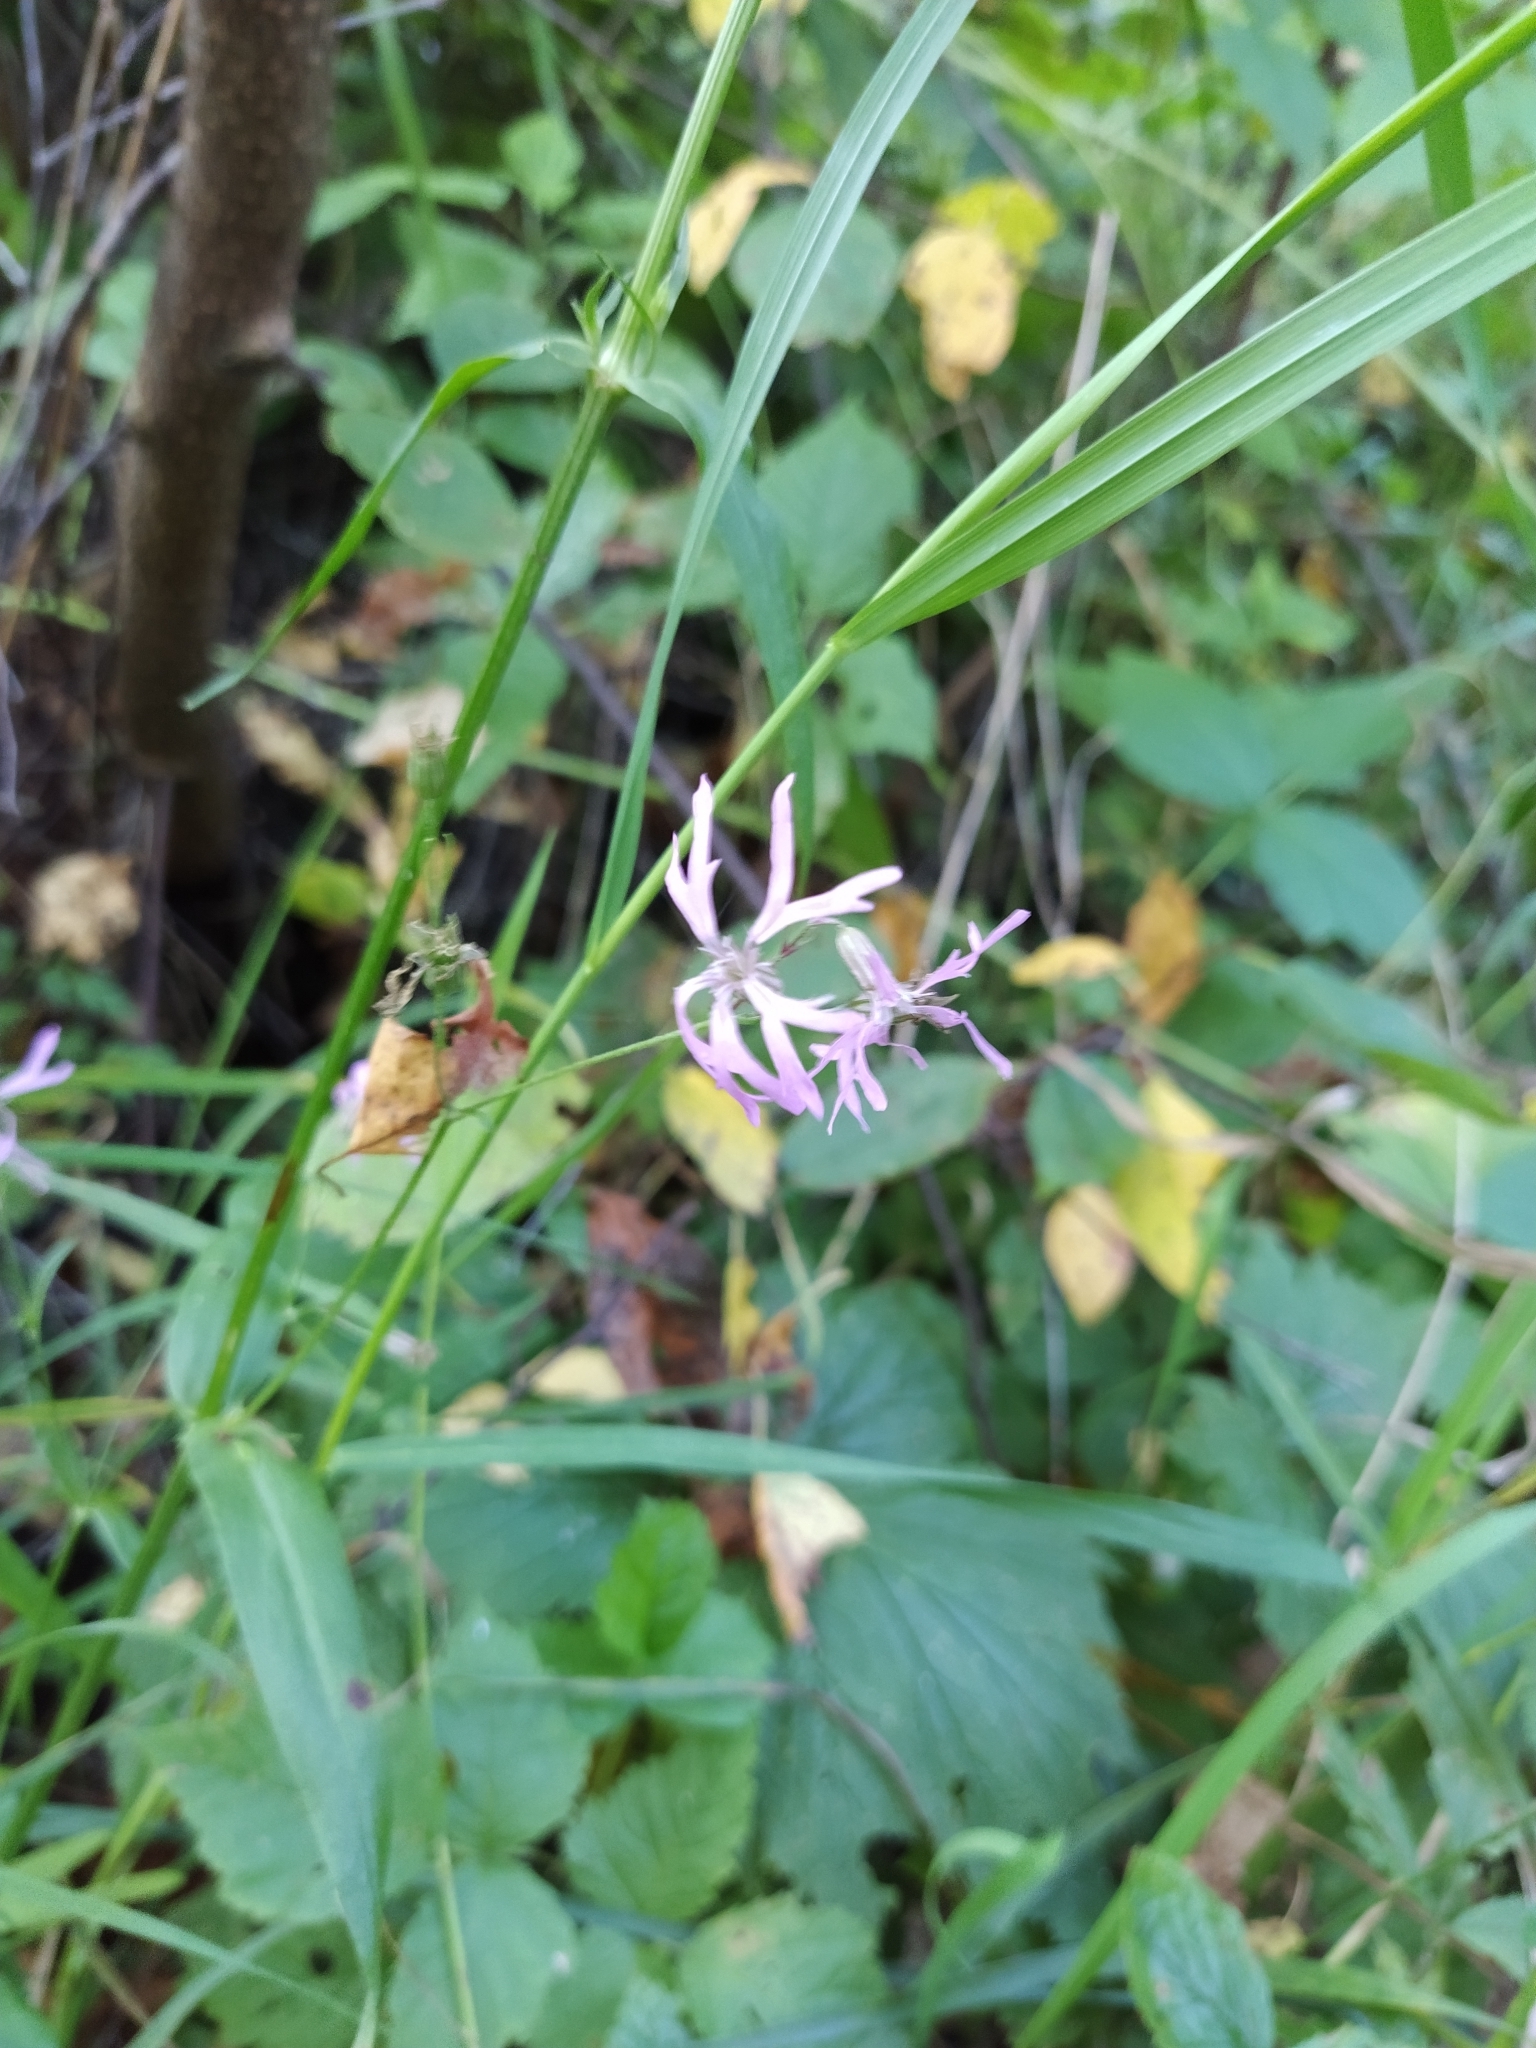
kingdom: Plantae
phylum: Tracheophyta
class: Magnoliopsida
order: Caryophyllales
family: Caryophyllaceae
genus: Silene
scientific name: Silene flos-cuculi
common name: Ragged-robin
